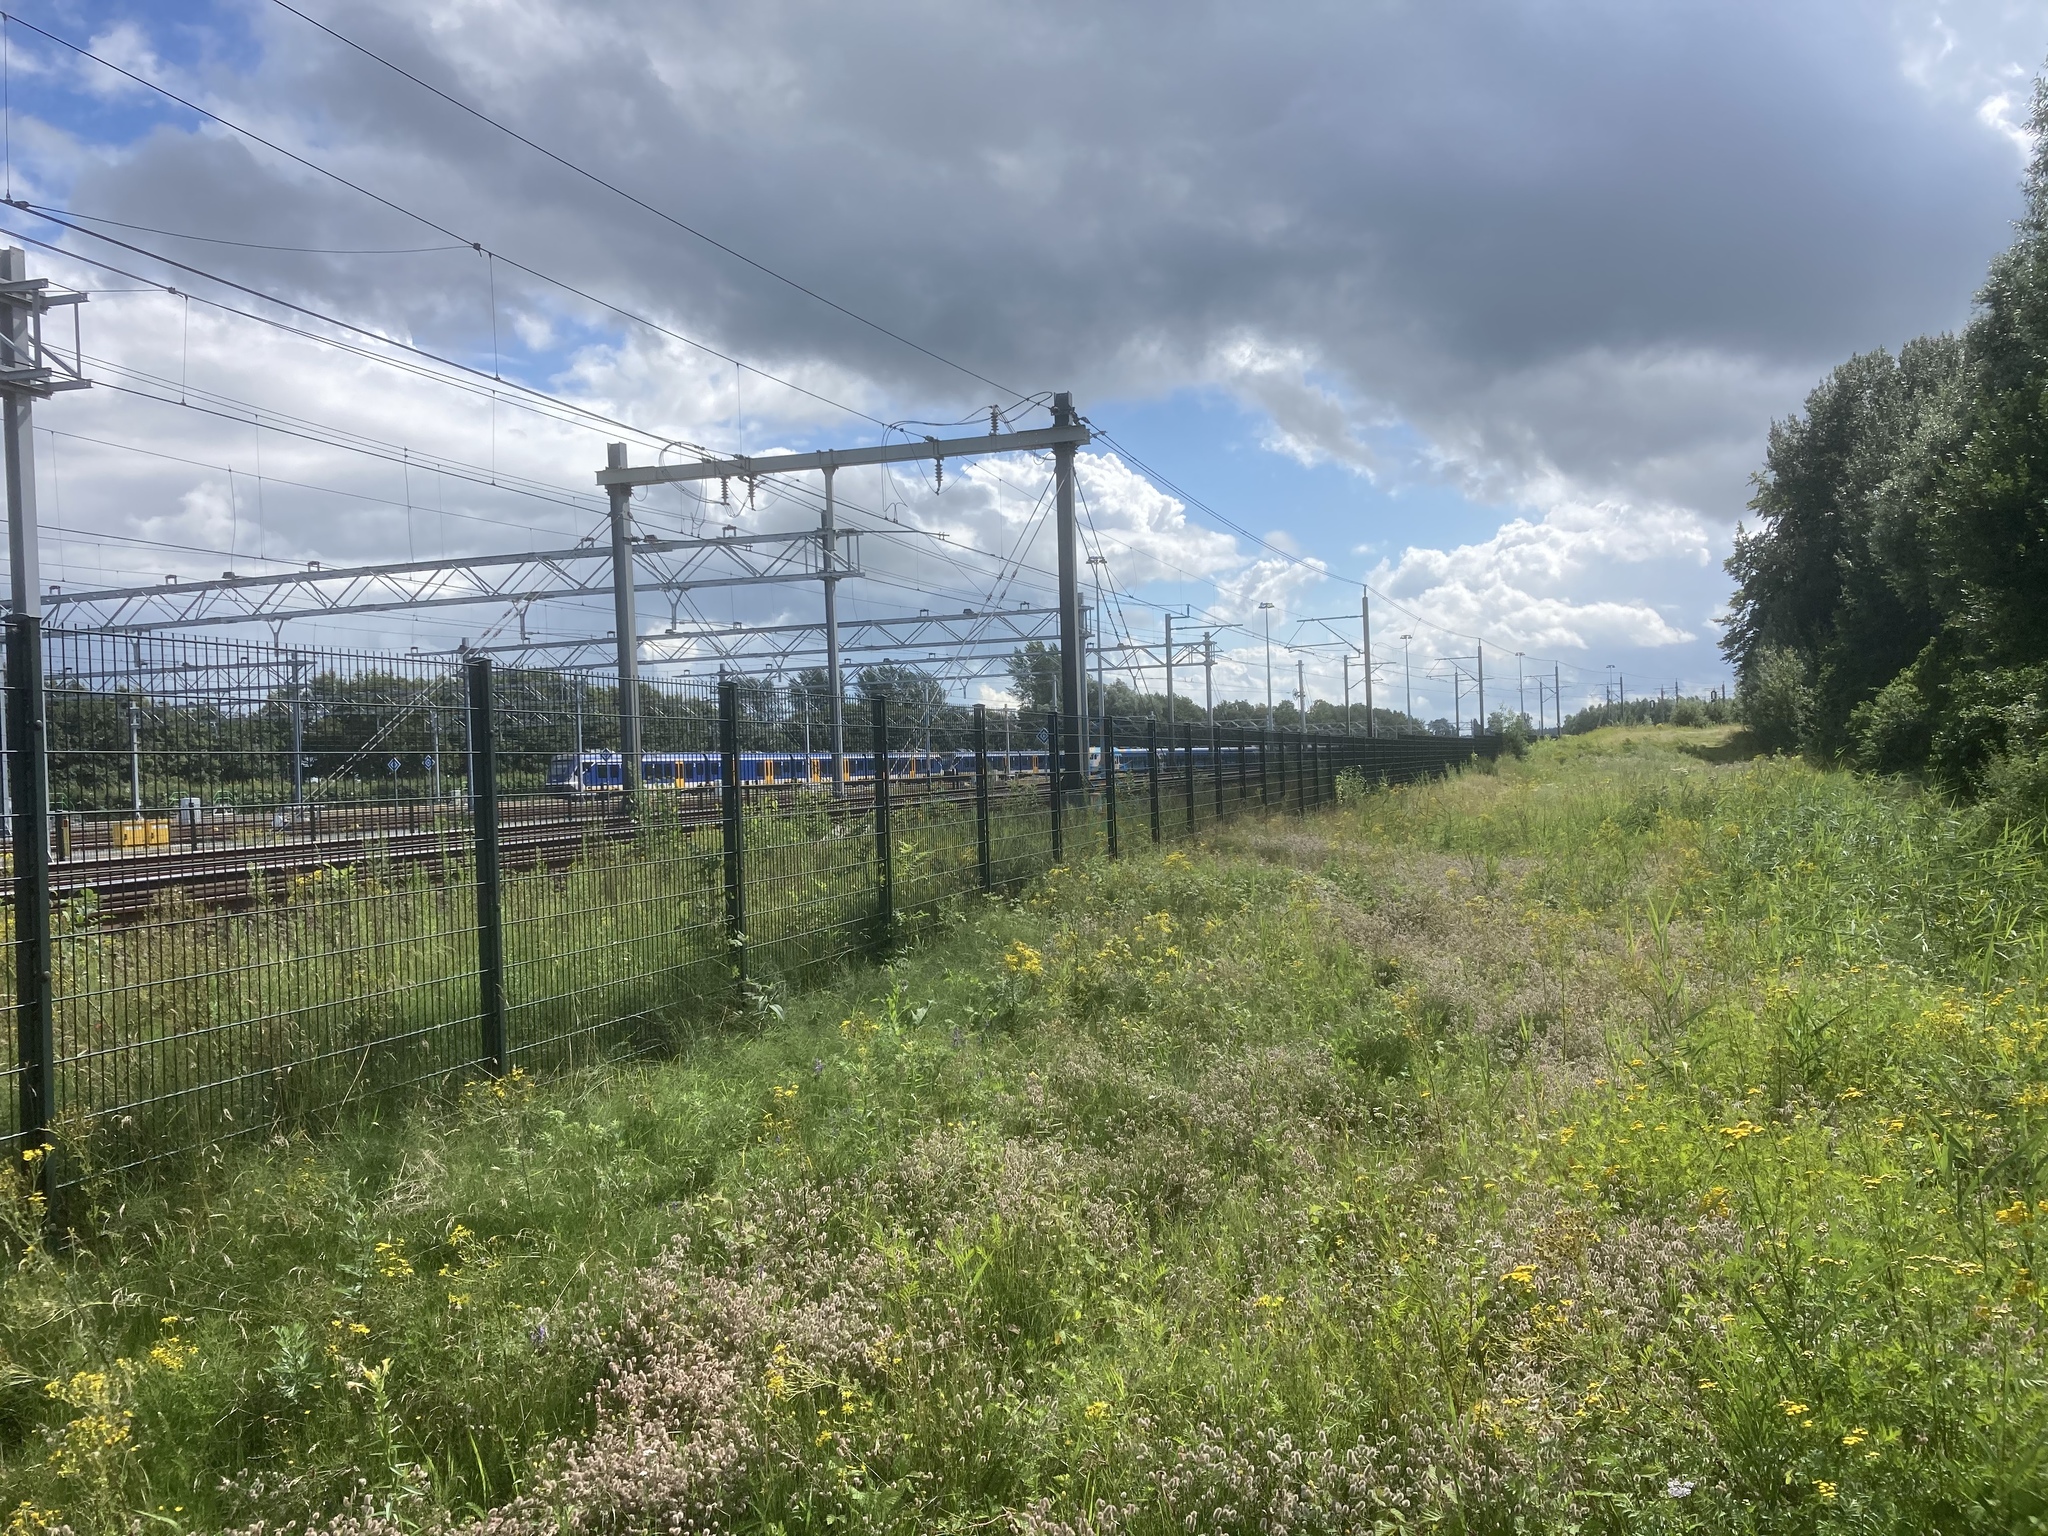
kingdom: Plantae
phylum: Tracheophyta
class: Magnoliopsida
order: Fabales
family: Fabaceae
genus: Trifolium
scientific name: Trifolium arvense
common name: Hare's-foot clover
